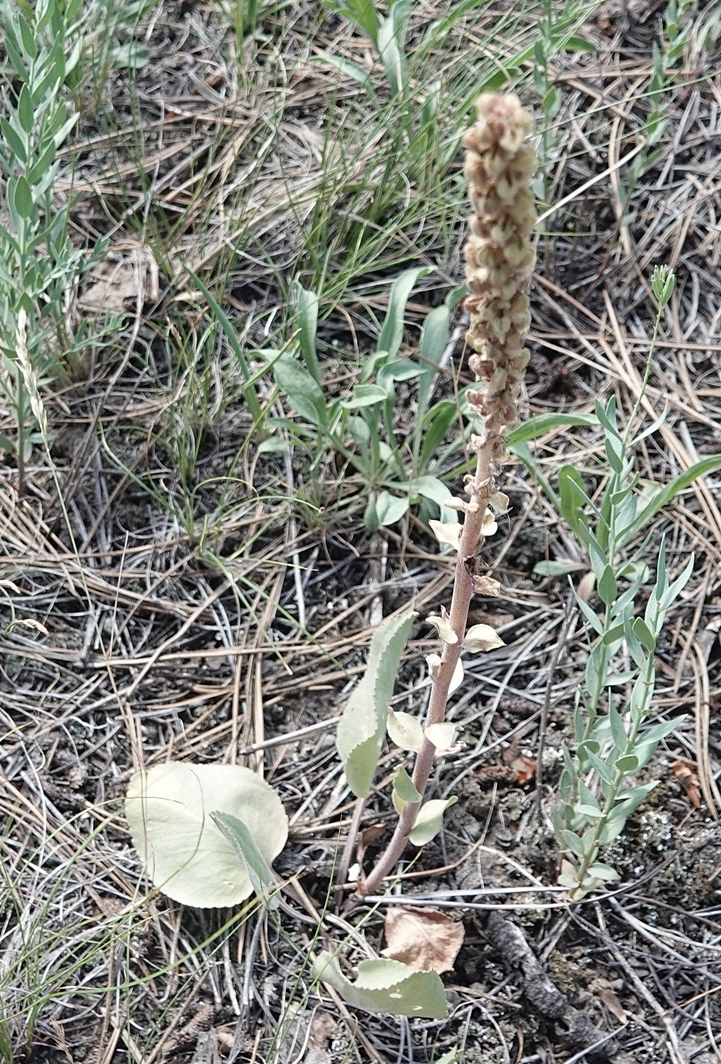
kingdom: Plantae
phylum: Tracheophyta
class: Magnoliopsida
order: Lamiales
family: Plantaginaceae
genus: Synthyris
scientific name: Synthyris wyomingensis
